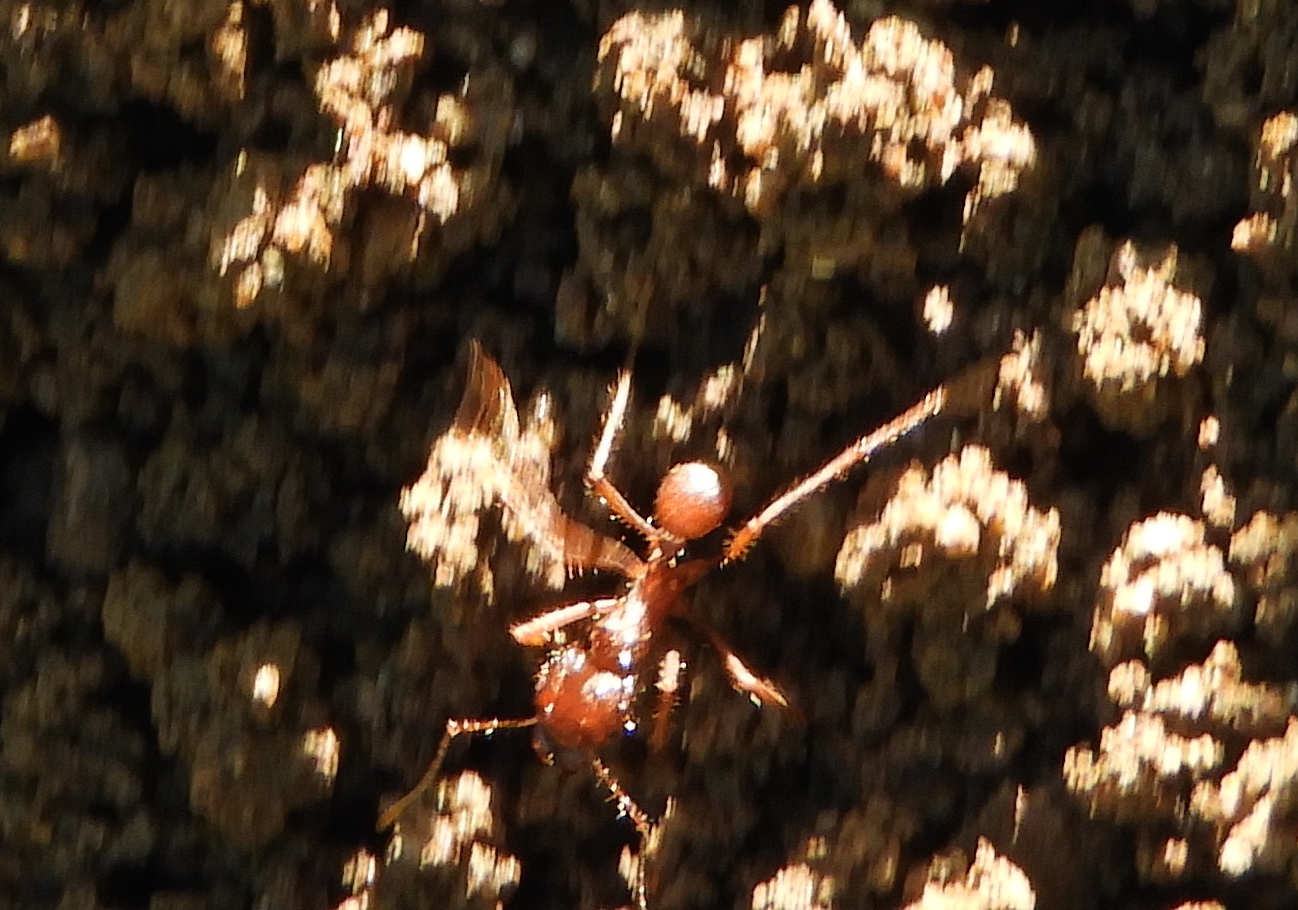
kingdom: Animalia
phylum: Arthropoda
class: Insecta
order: Hymenoptera
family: Formicidae
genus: Atta
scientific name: Atta mexicana
